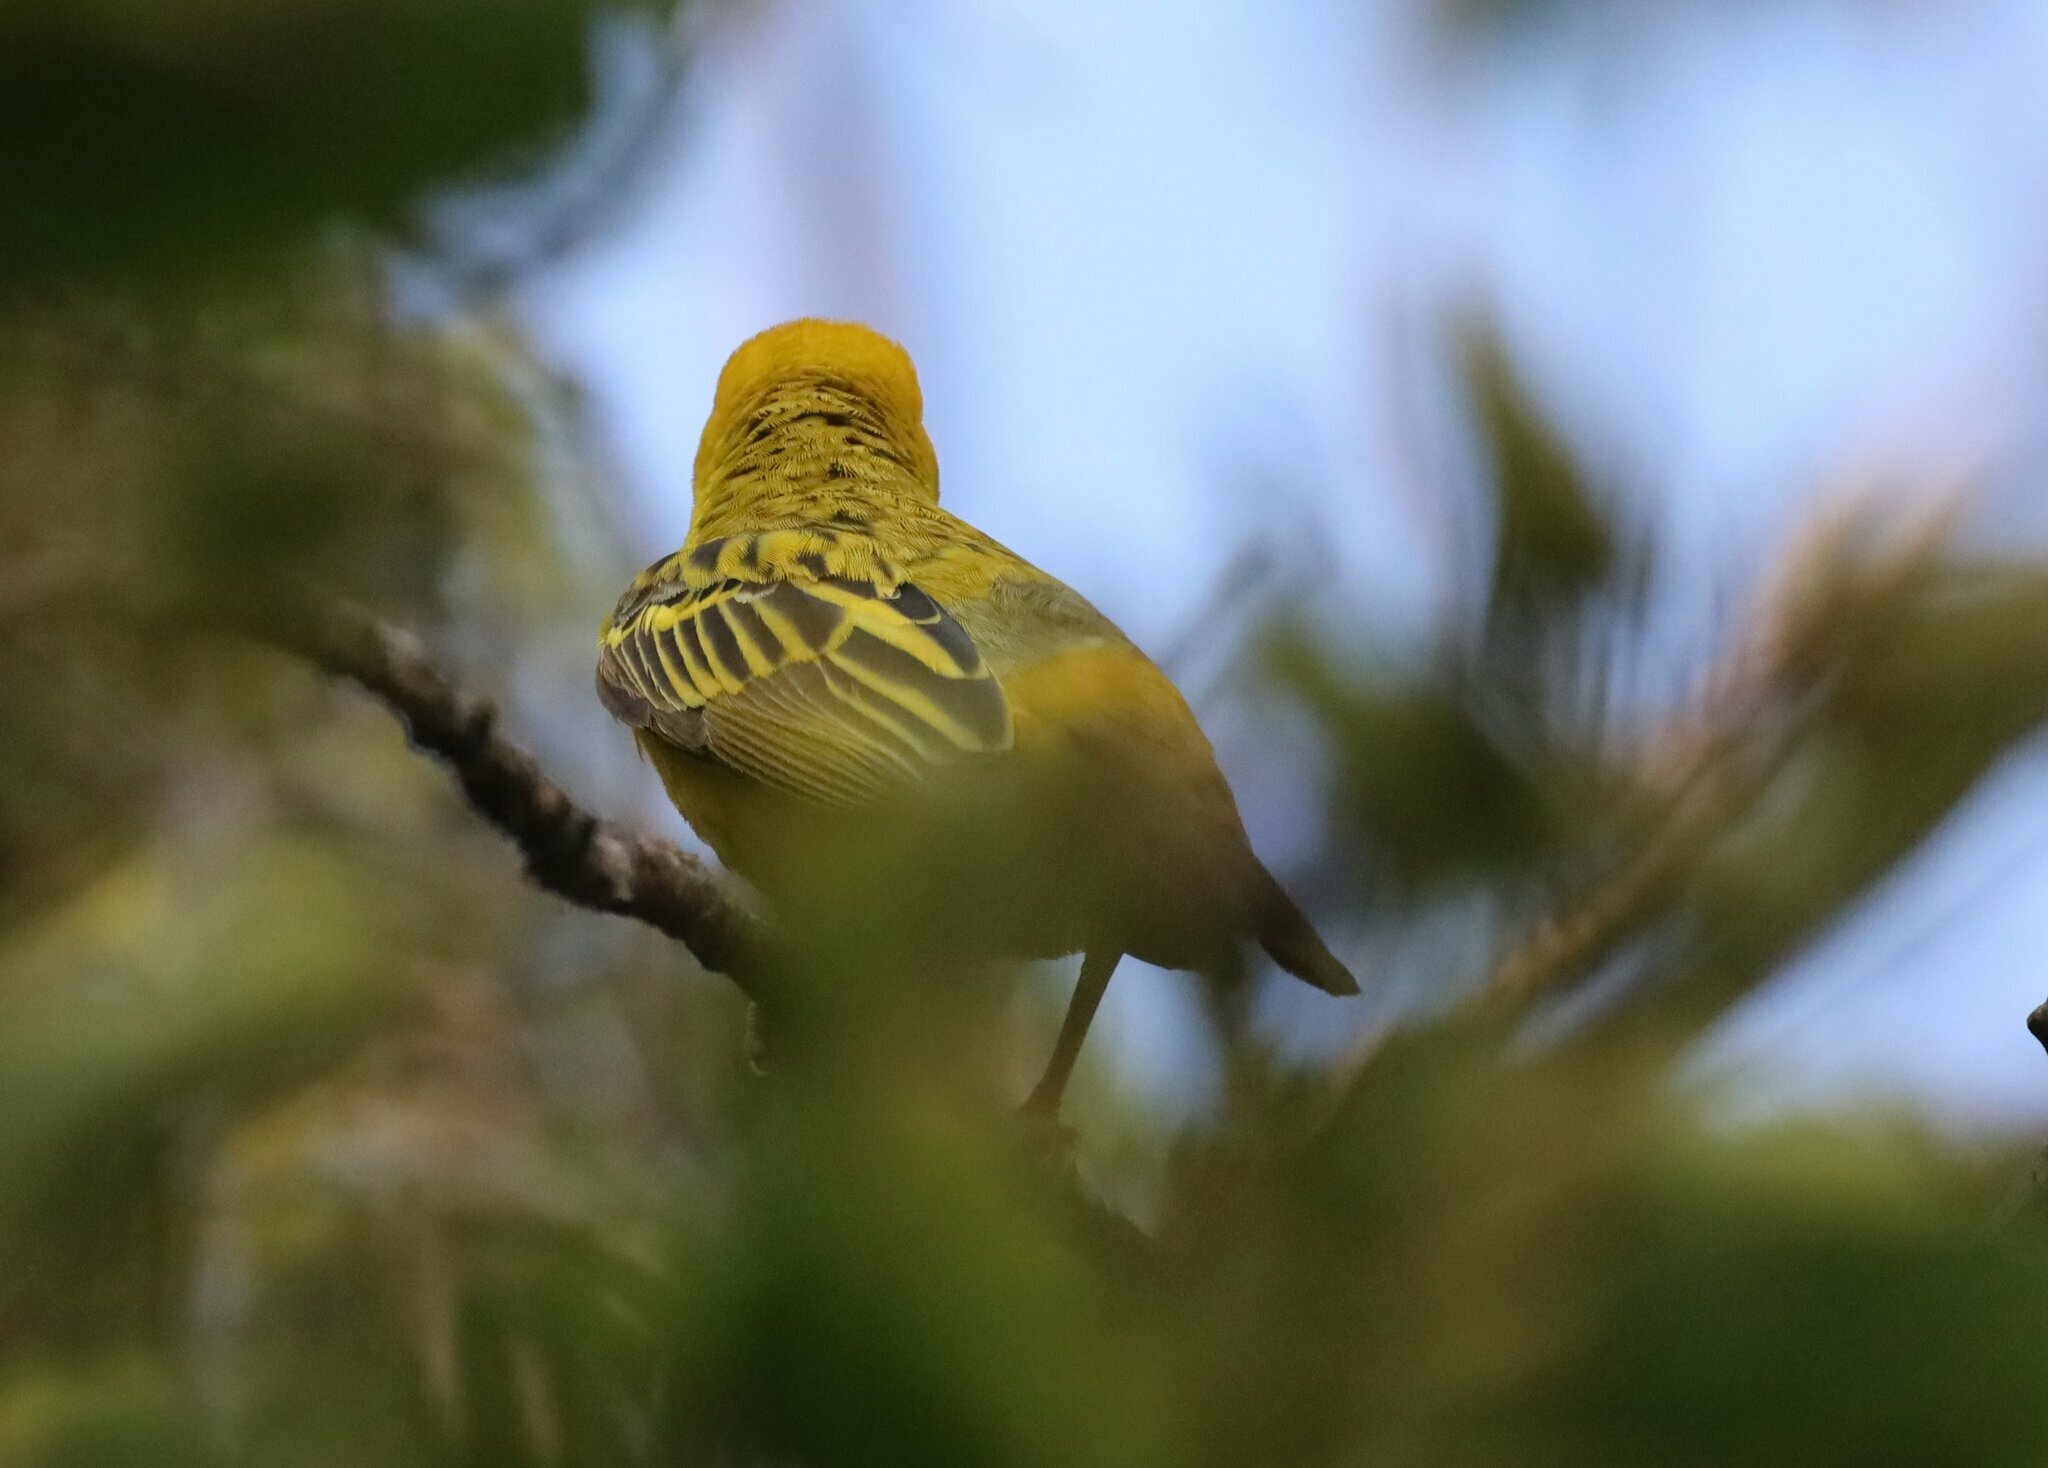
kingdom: Animalia
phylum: Chordata
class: Aves
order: Passeriformes
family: Ploceidae
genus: Ploceus
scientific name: Ploceus velatus
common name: Southern masked weaver
